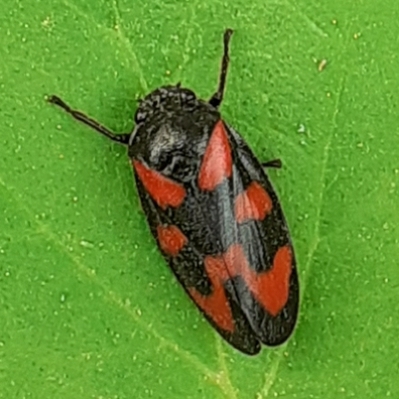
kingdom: Animalia
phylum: Arthropoda
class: Insecta
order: Hemiptera
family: Cercopidae
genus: Cercopis
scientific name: Cercopis vulnerata
